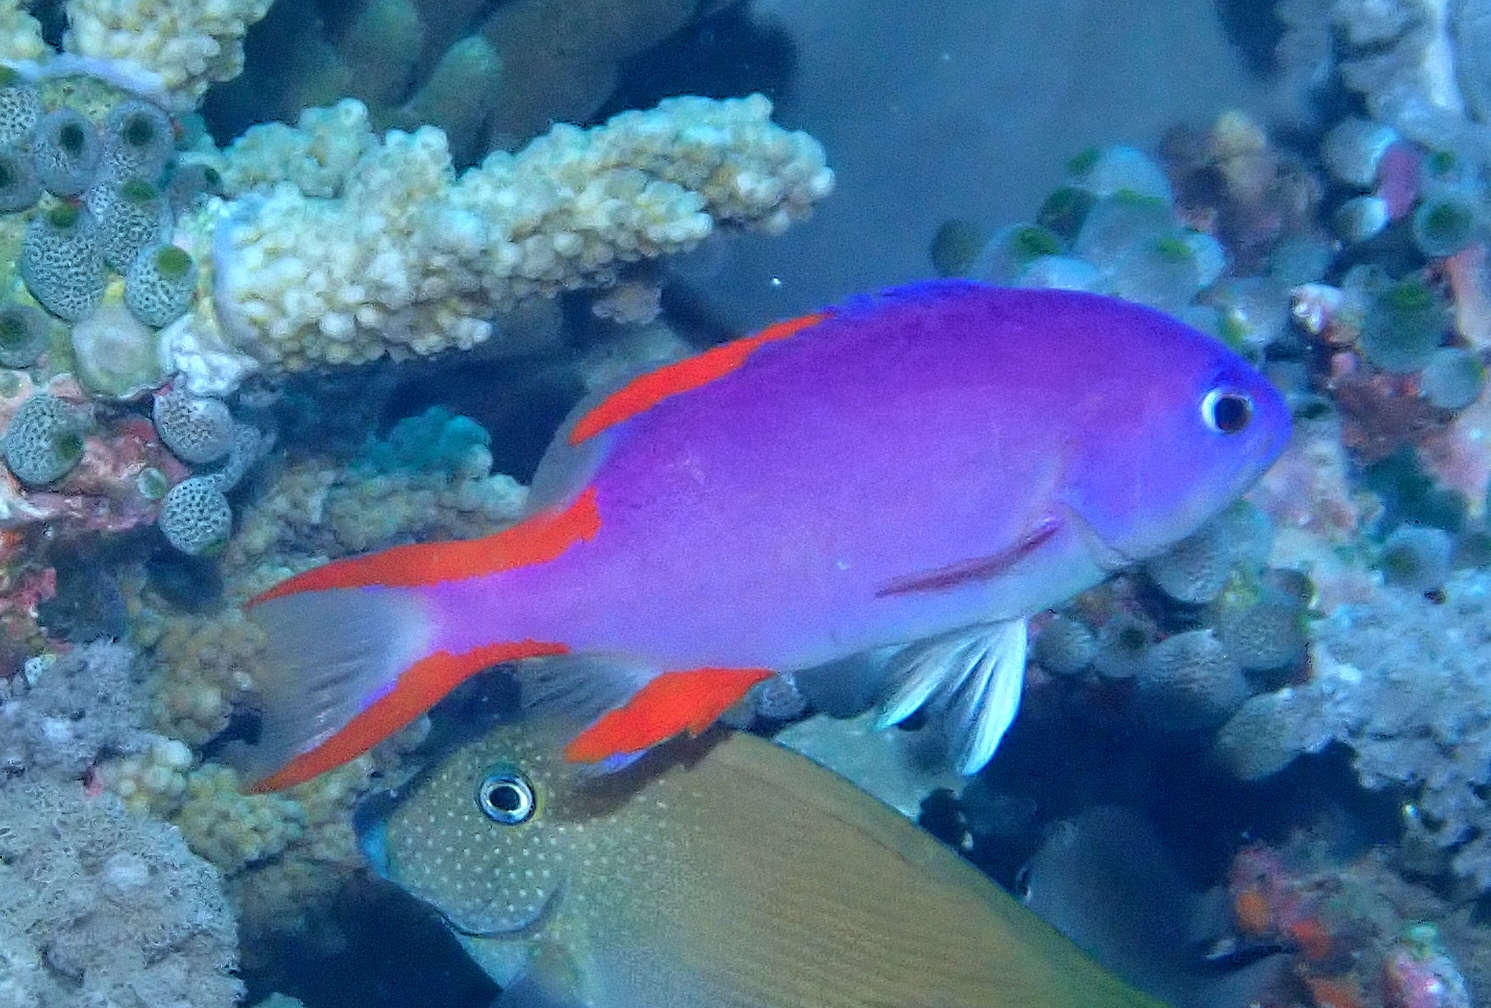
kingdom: Animalia
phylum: Chordata
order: Perciformes
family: Serranidae
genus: Gracila
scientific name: Gracila albomarginata
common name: White-margined grouper
